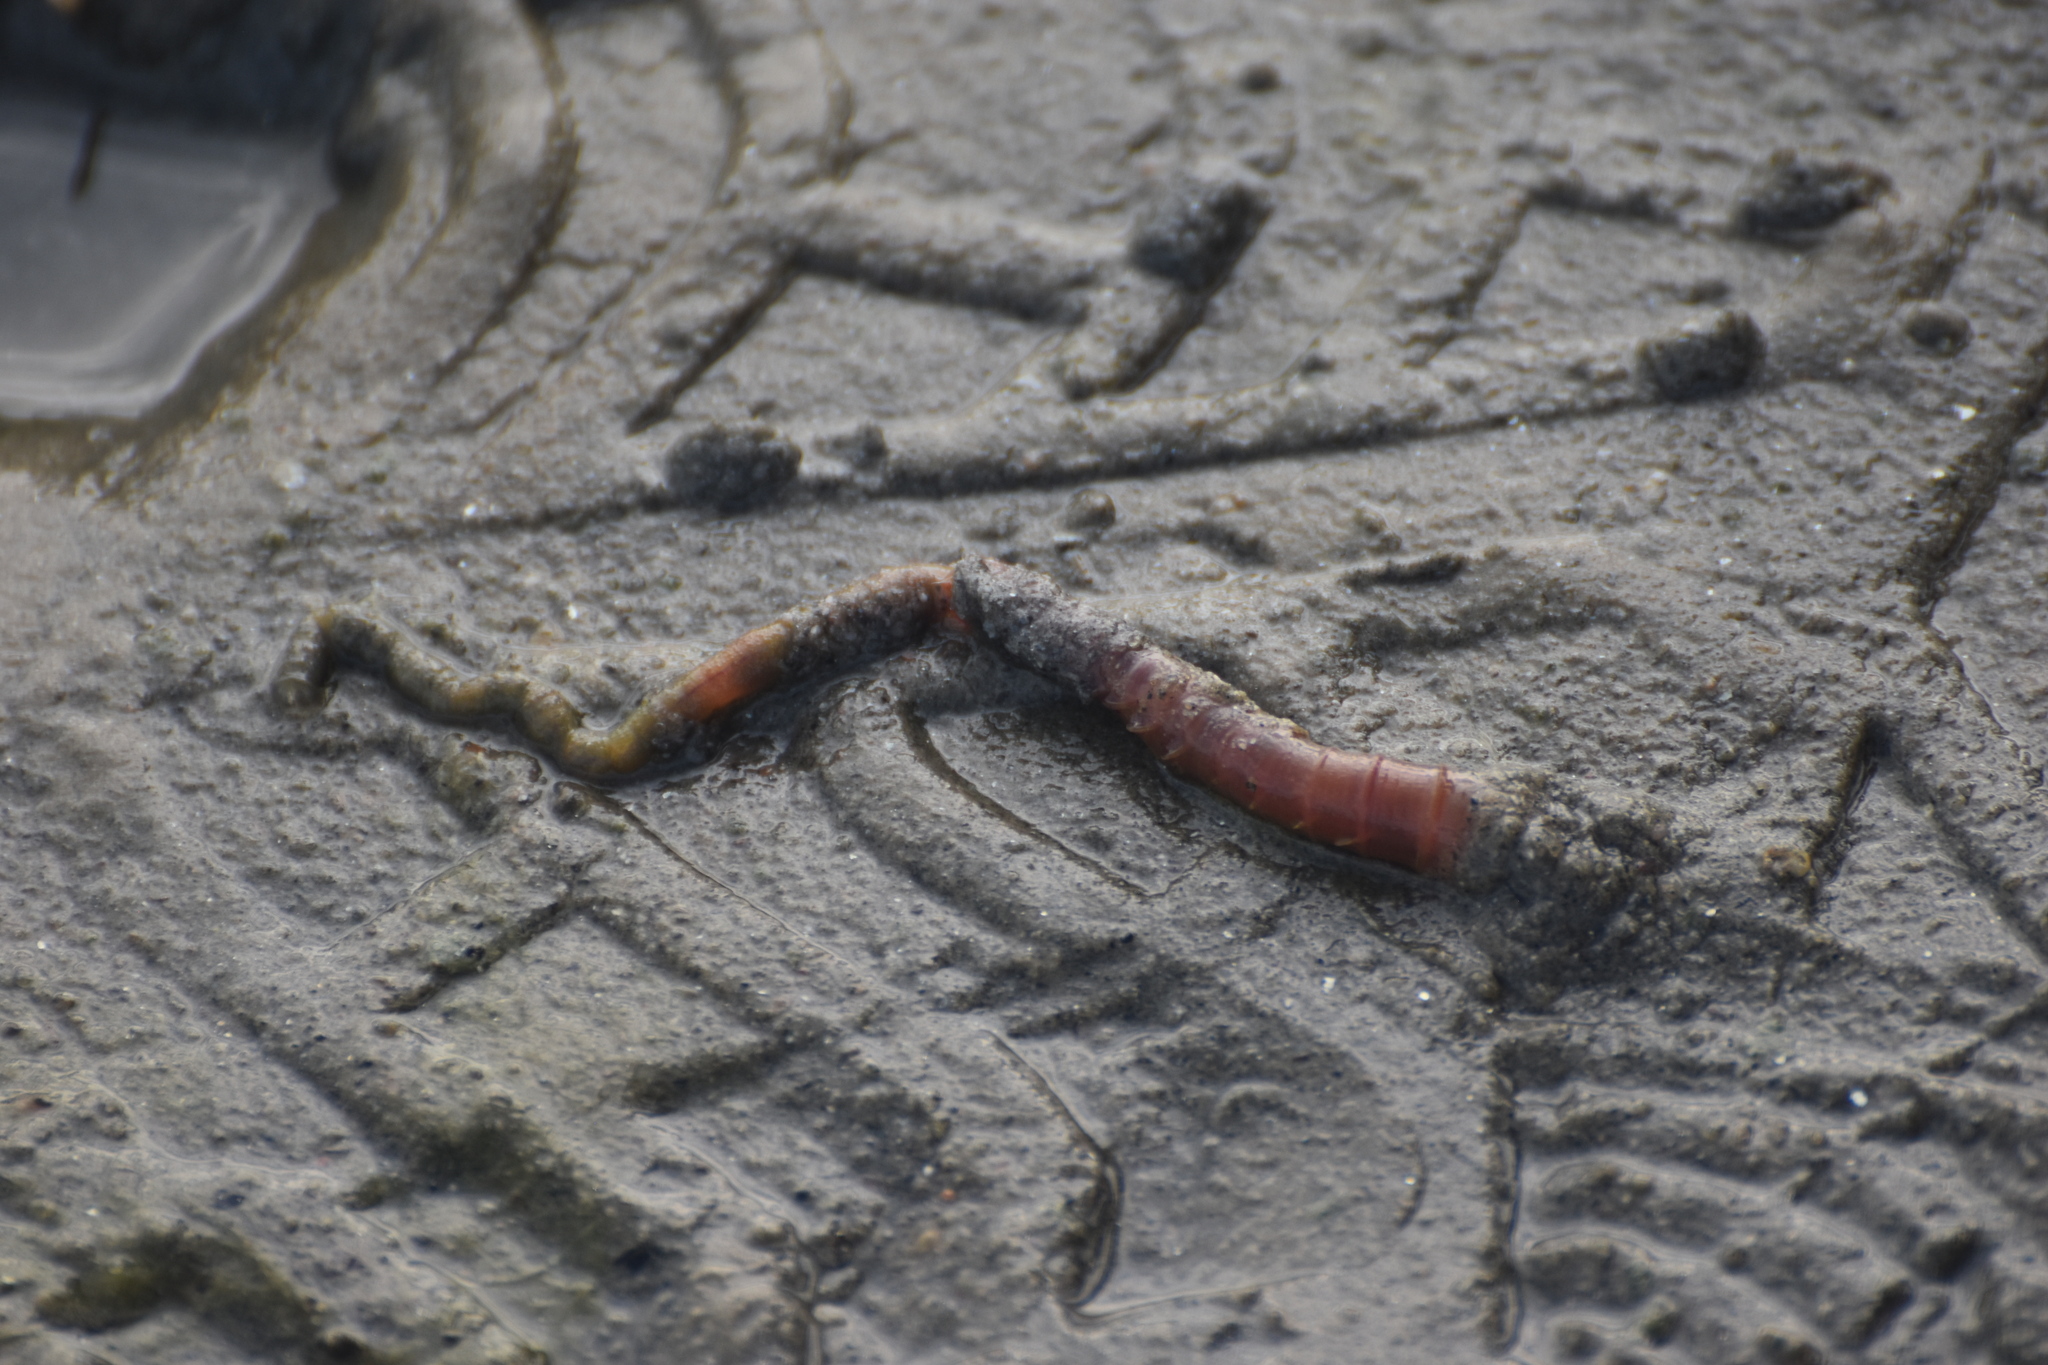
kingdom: Animalia
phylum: Annelida
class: Polychaeta
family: Arenicolidae
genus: Arenicola
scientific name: Arenicola marina
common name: Blow lugworm
